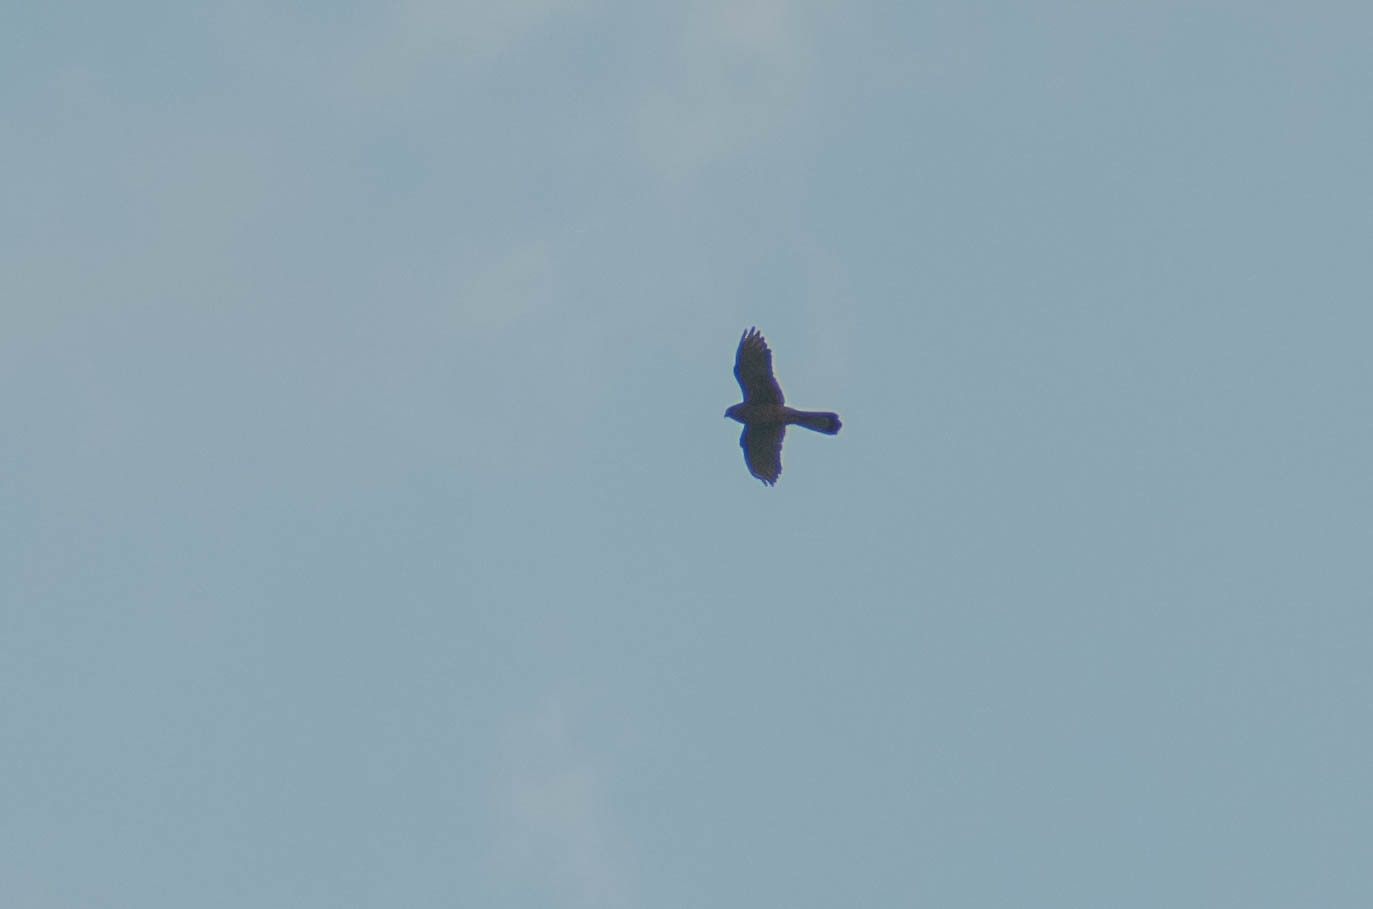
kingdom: Animalia
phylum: Chordata
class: Aves
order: Falconiformes
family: Falconidae
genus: Falco
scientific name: Falco tinnunculus
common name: Common kestrel
